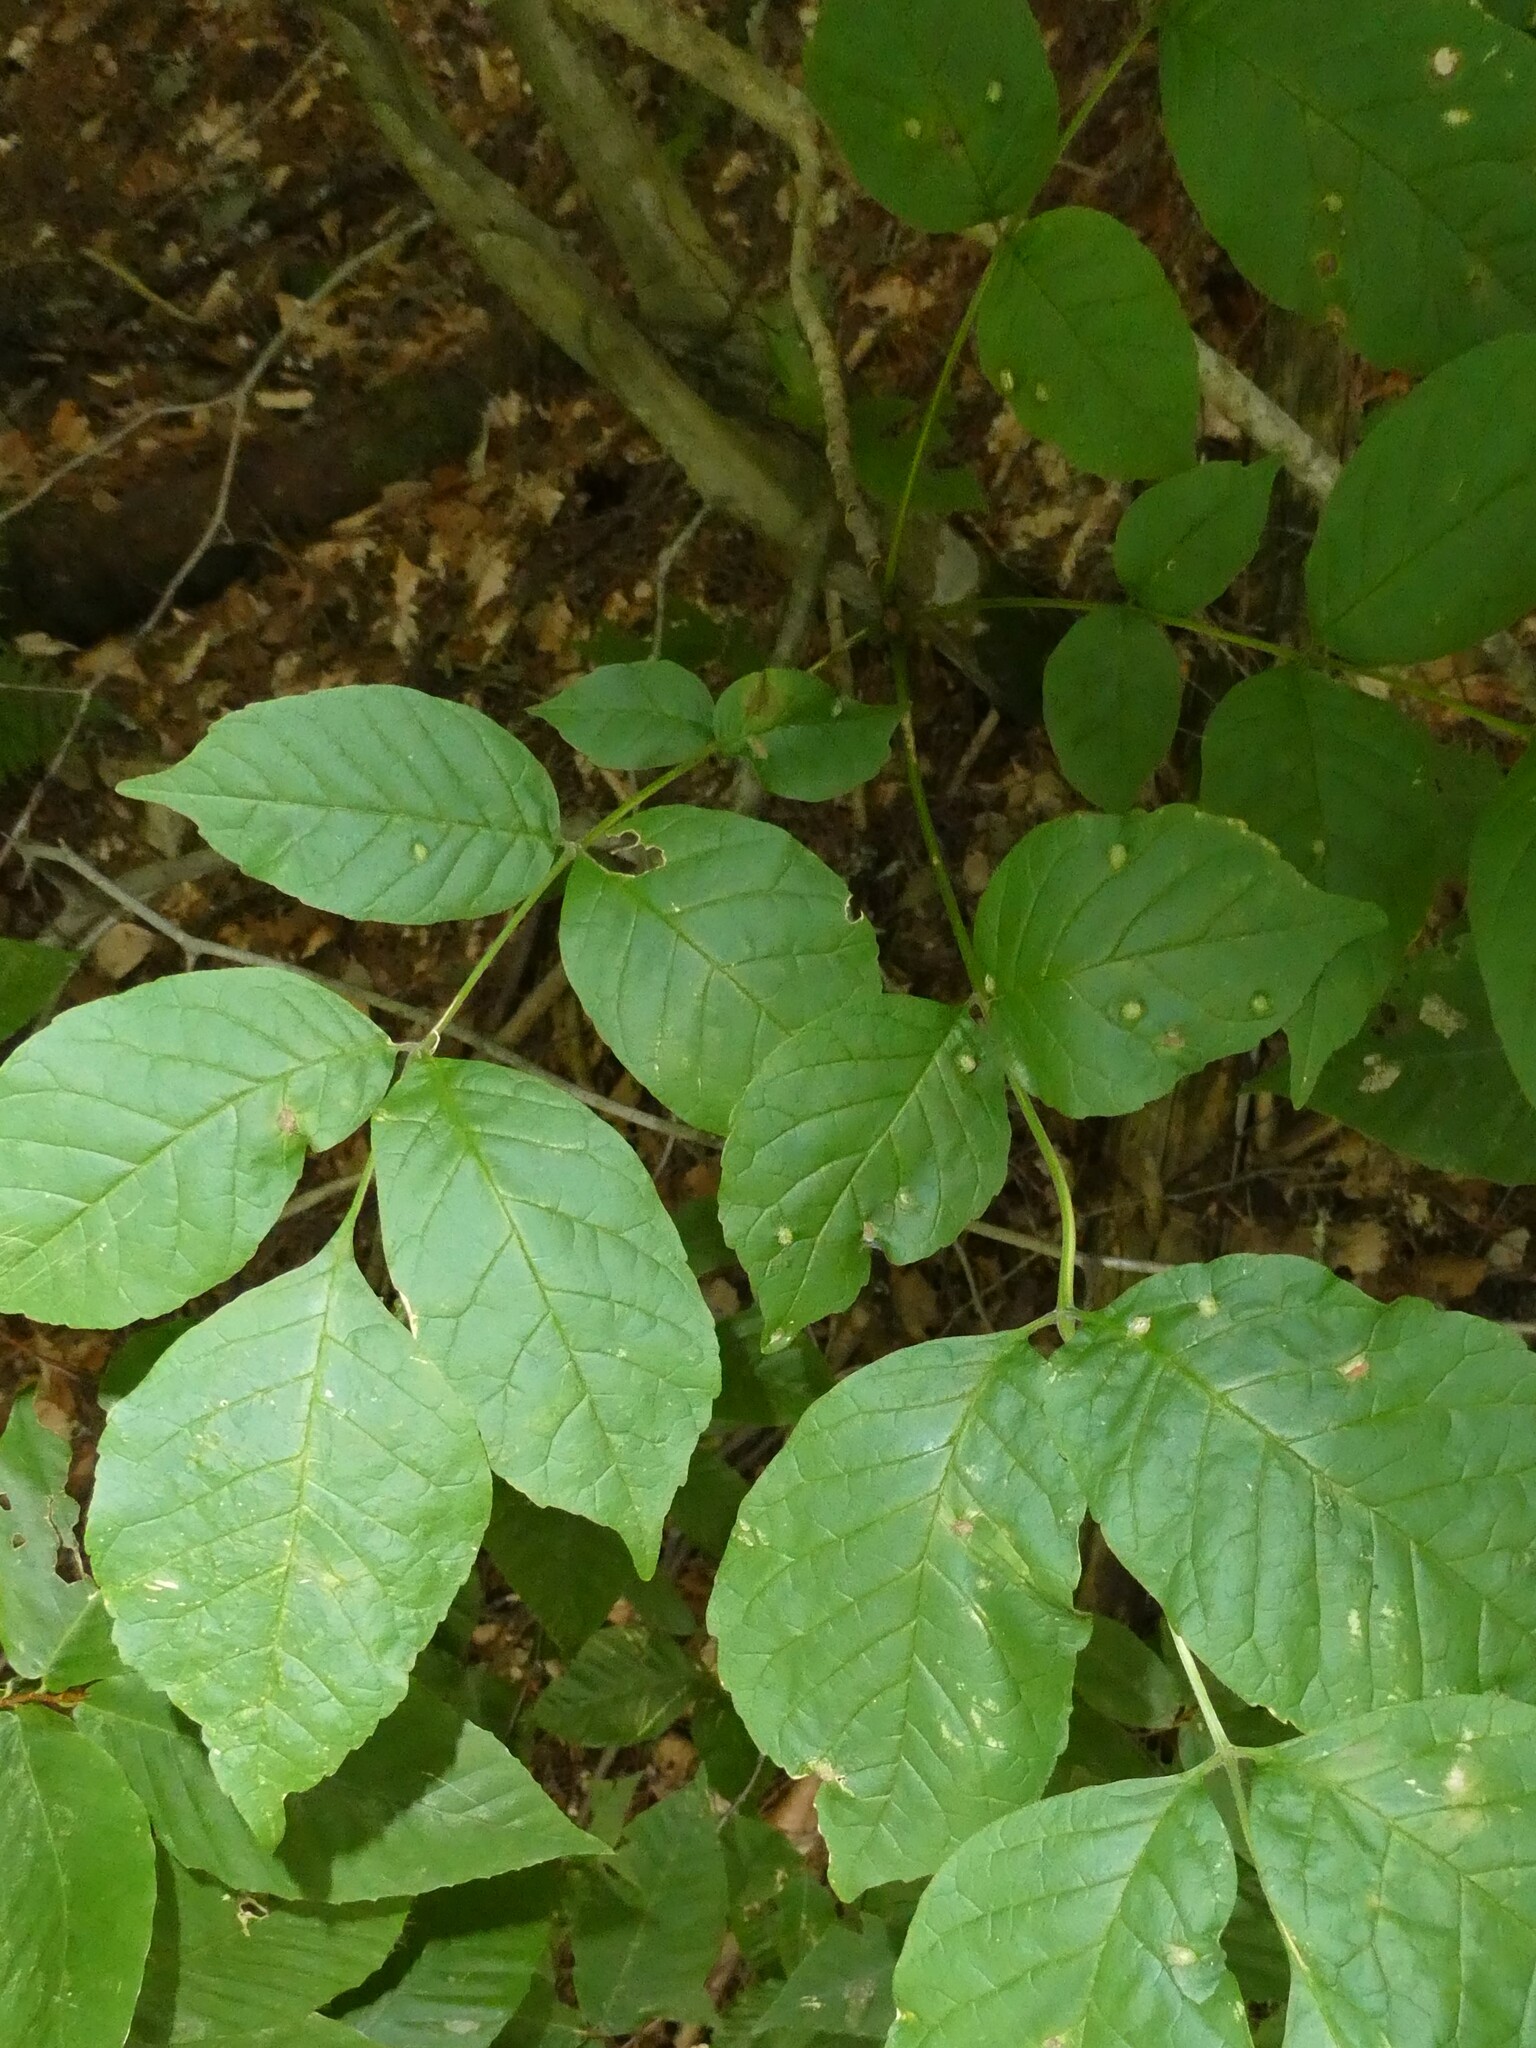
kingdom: Animalia
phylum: Arthropoda
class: Arachnida
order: Trombidiformes
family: Eriophyidae
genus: Aceria
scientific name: Aceria fraxinicola
